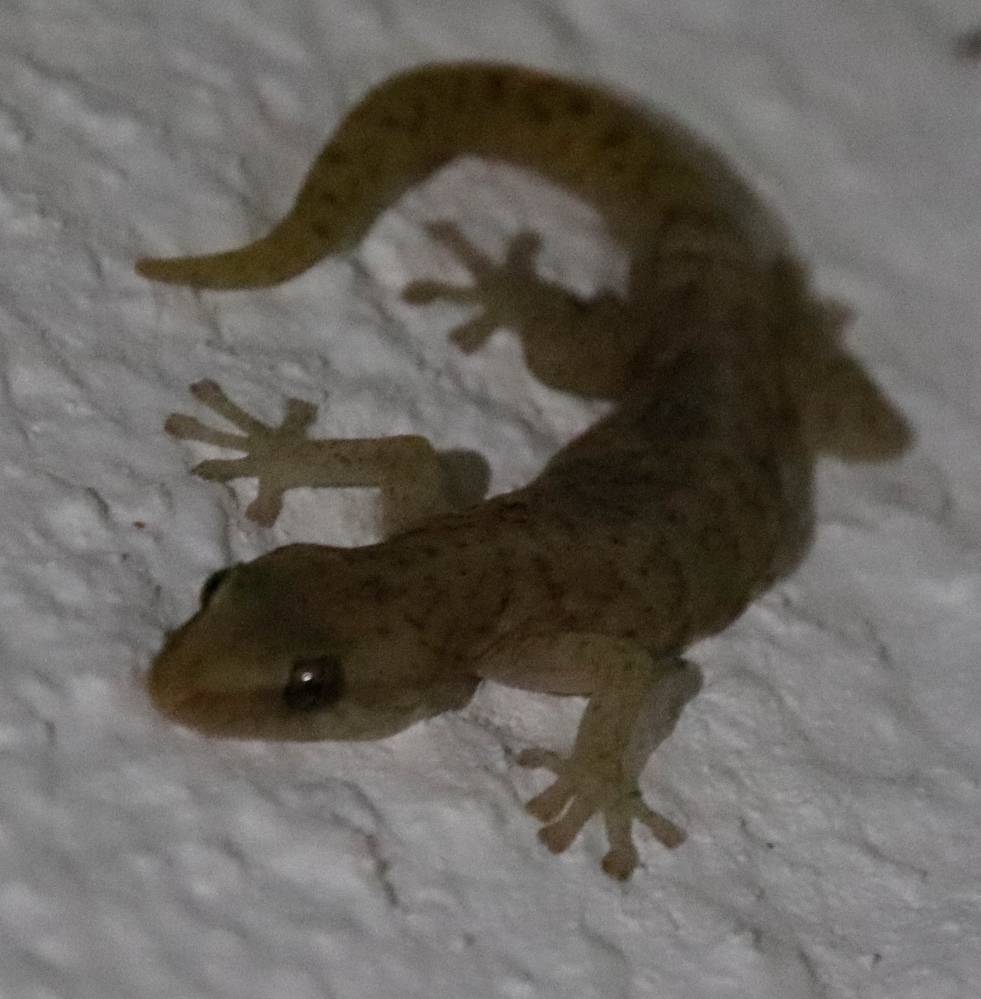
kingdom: Animalia
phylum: Chordata
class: Squamata
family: Gekkonidae
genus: Afrogecko
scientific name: Afrogecko porphyreus
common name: Marbled leaf-toed gecko
